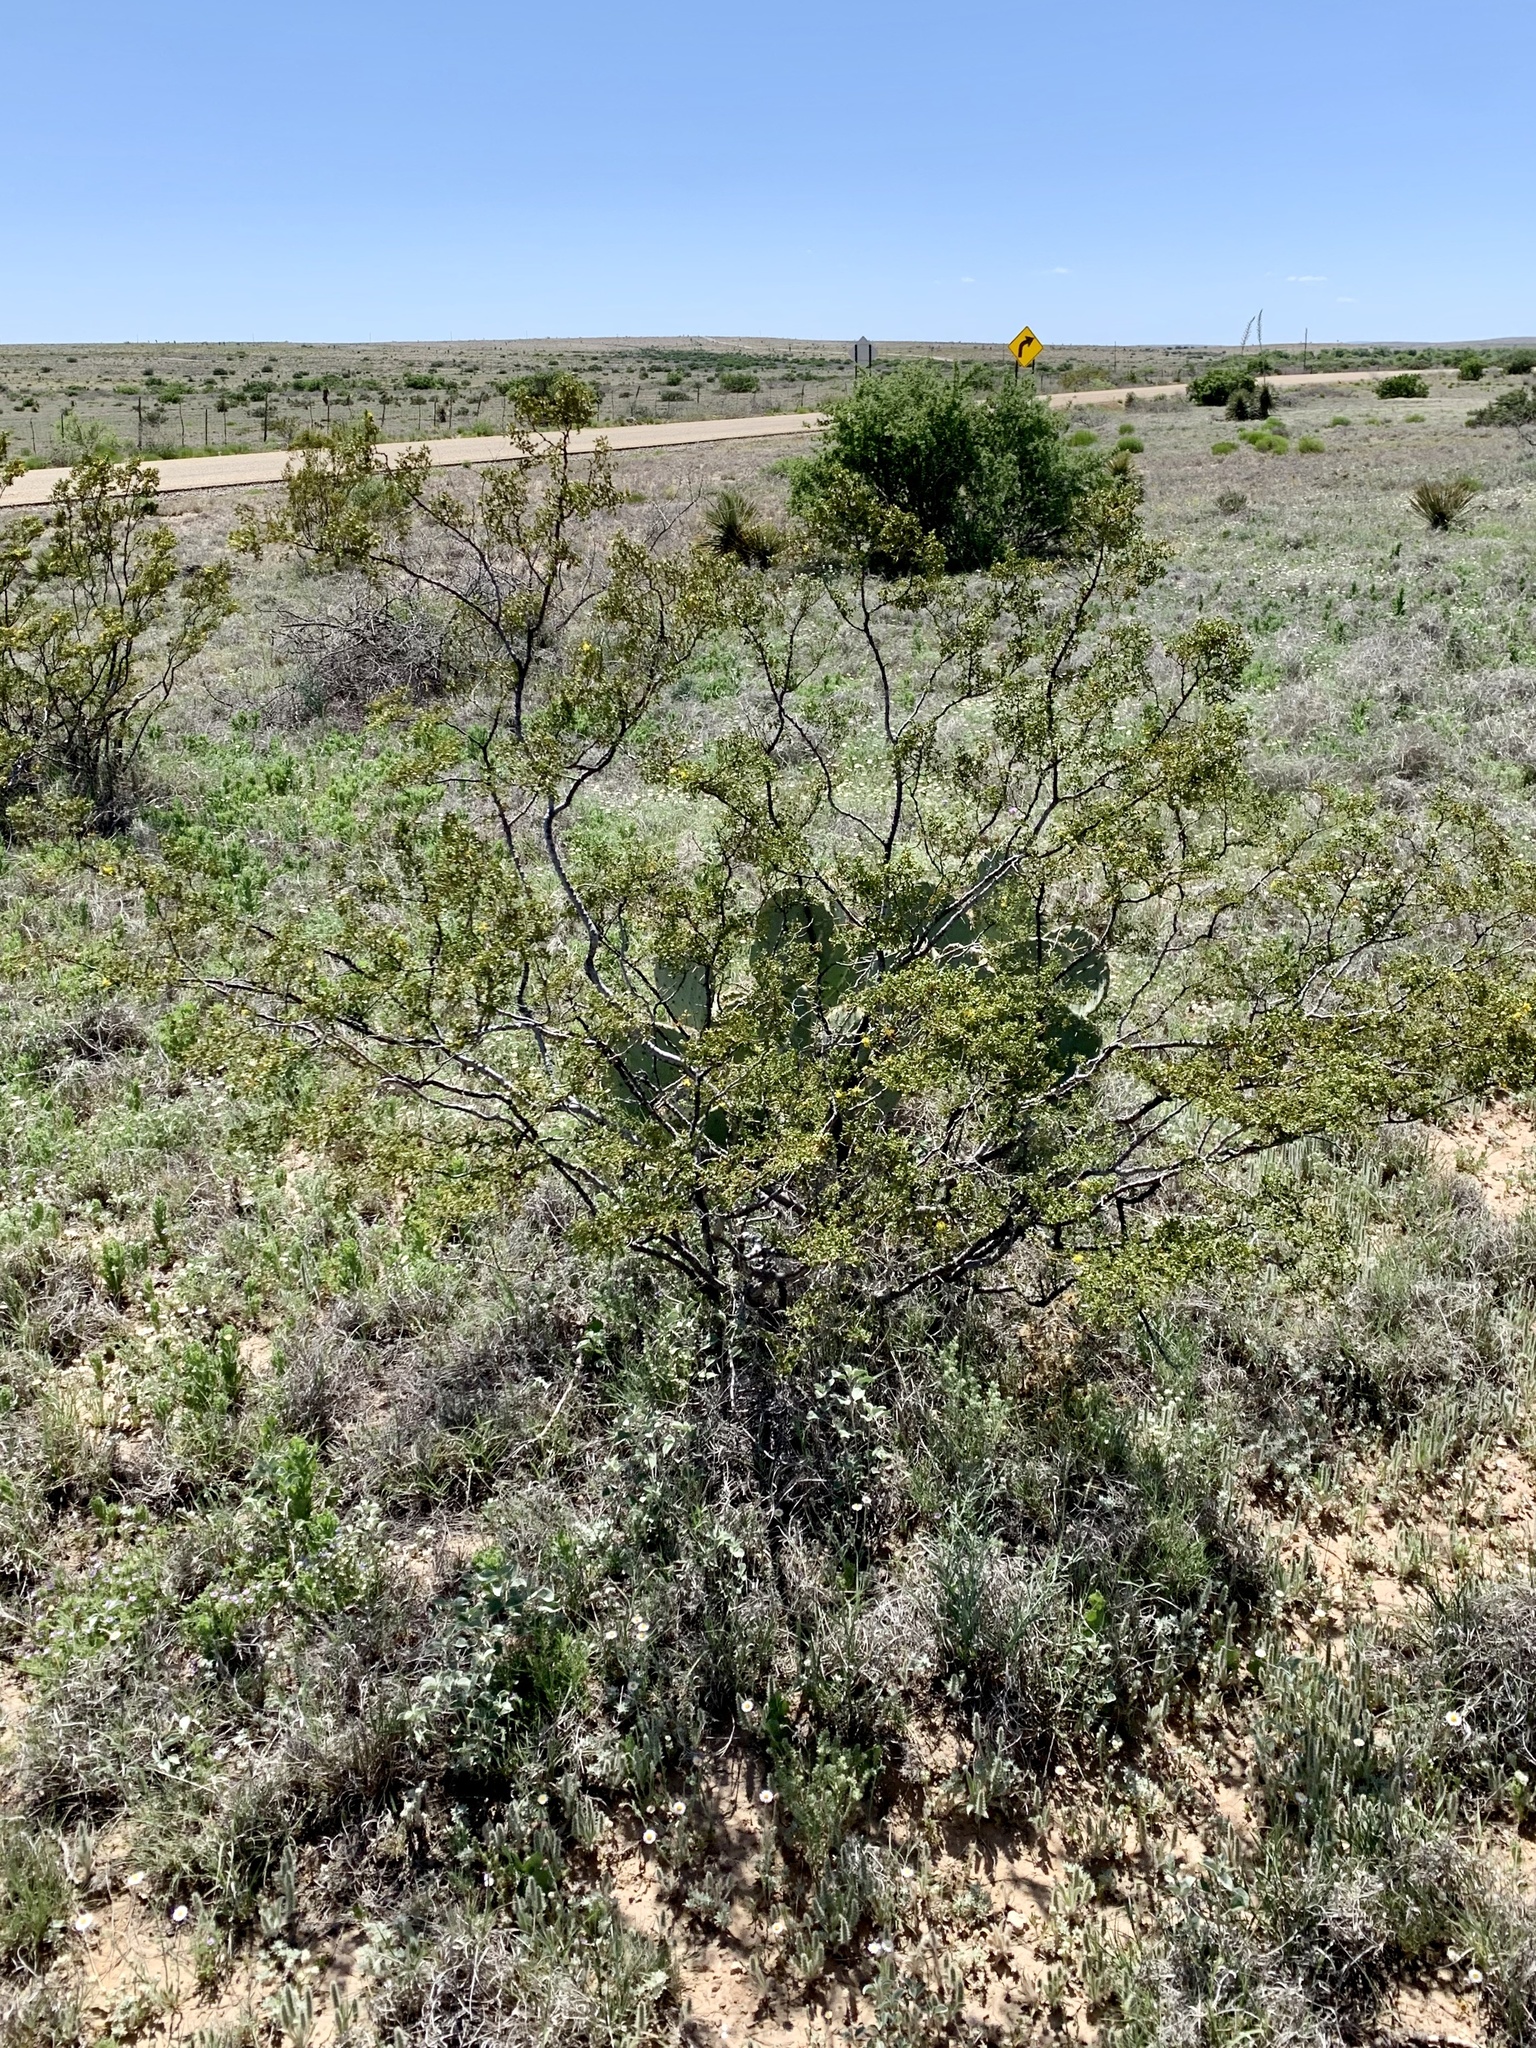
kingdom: Plantae
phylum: Tracheophyta
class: Magnoliopsida
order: Zygophyllales
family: Zygophyllaceae
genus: Larrea
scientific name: Larrea tridentata
